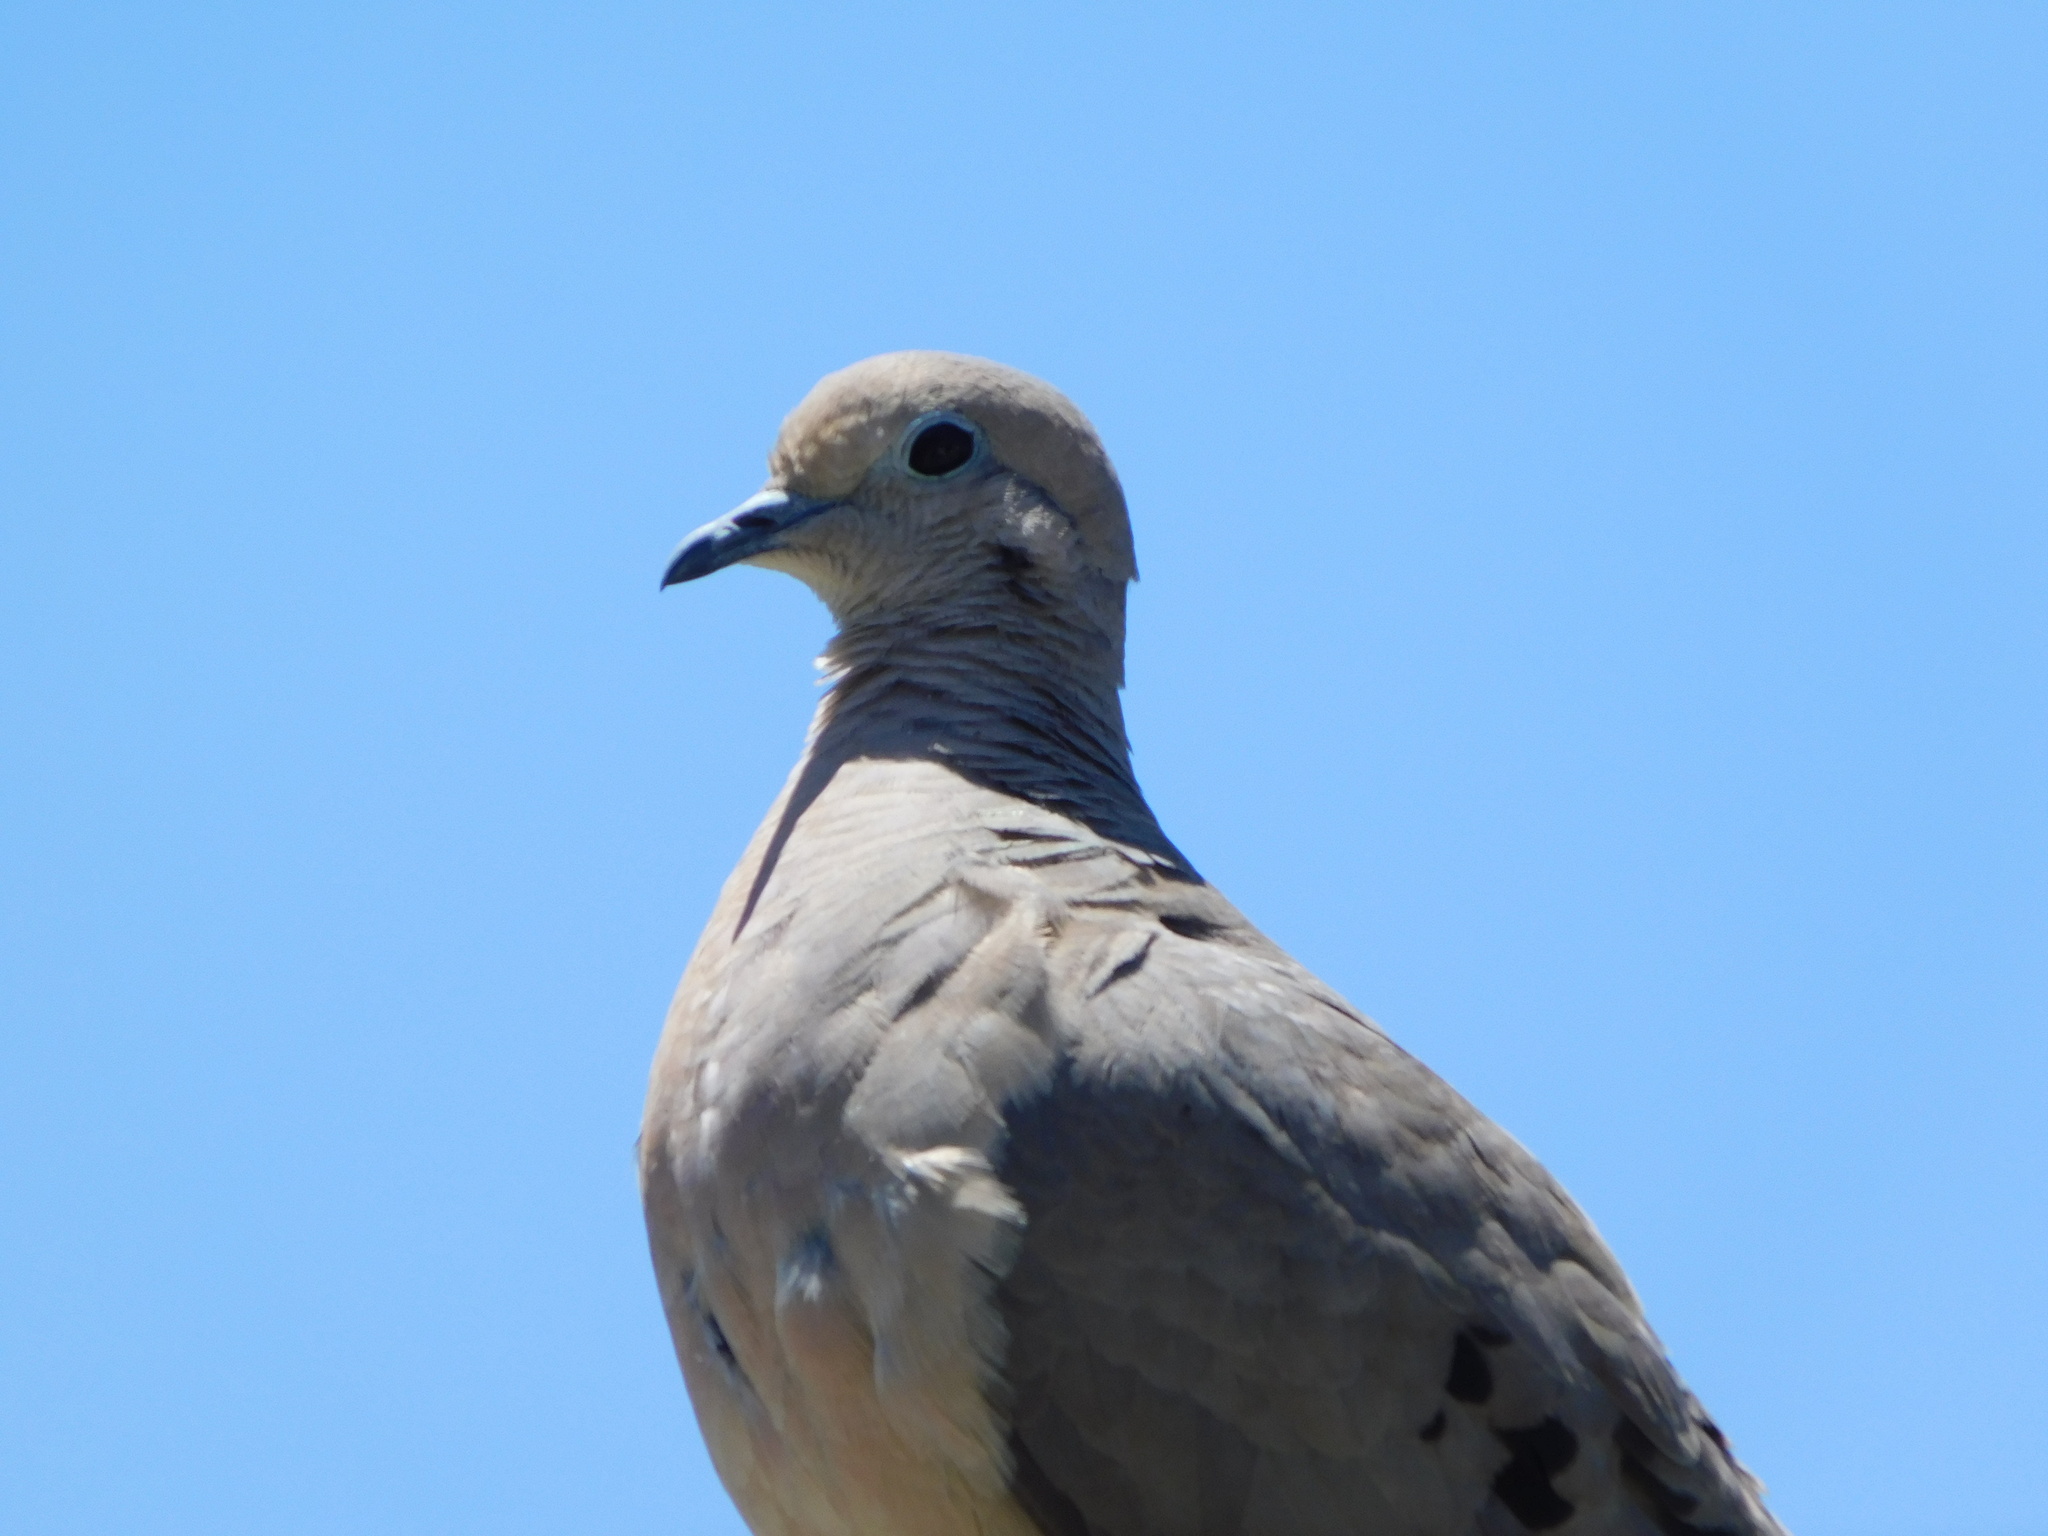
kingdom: Animalia
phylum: Chordata
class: Aves
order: Columbiformes
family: Columbidae
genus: Zenaida
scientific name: Zenaida auriculata
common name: Eared dove
